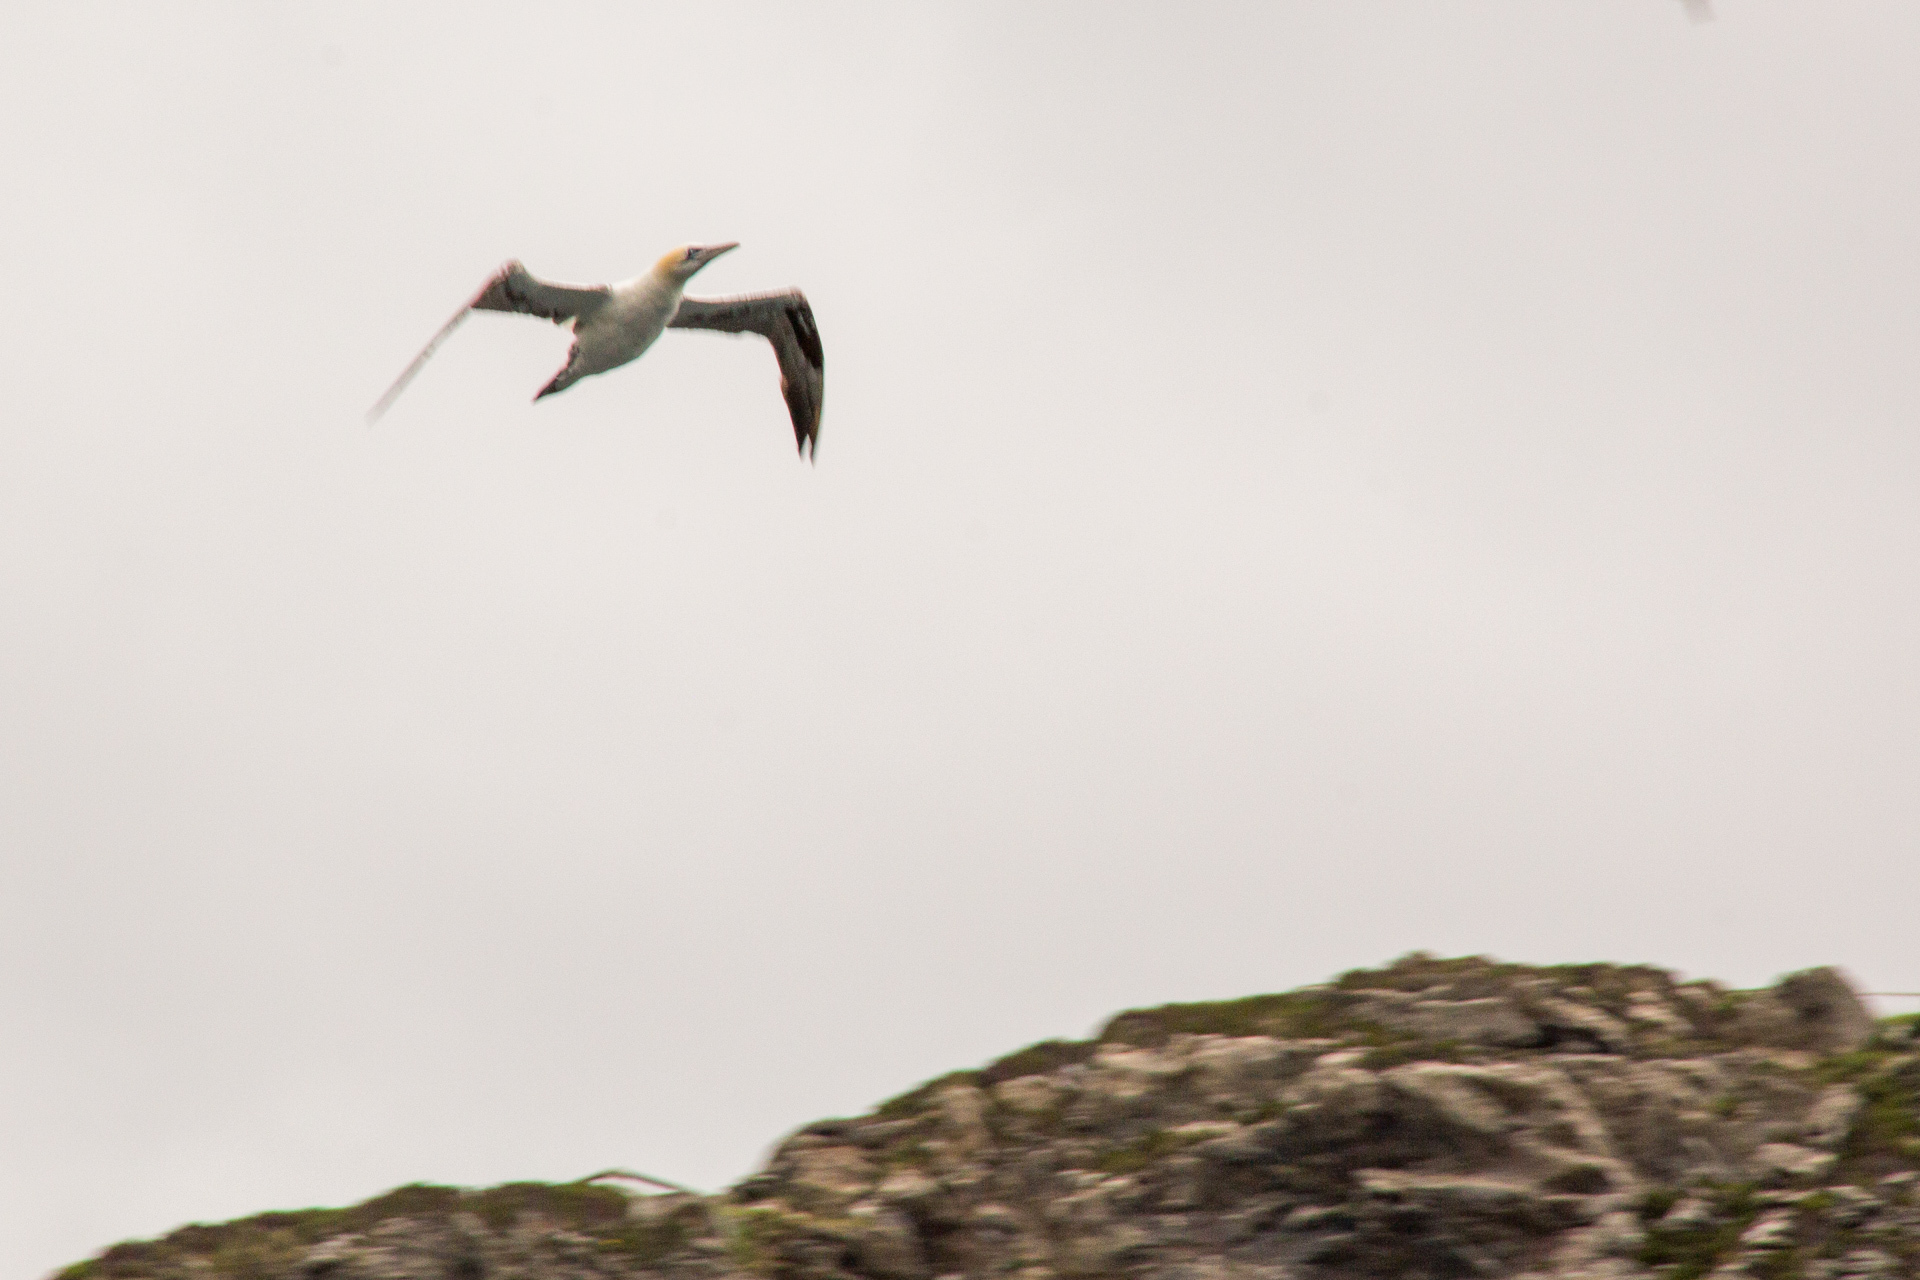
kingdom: Animalia
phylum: Chordata
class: Aves
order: Suliformes
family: Sulidae
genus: Morus
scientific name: Morus bassanus
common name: Northern gannet
